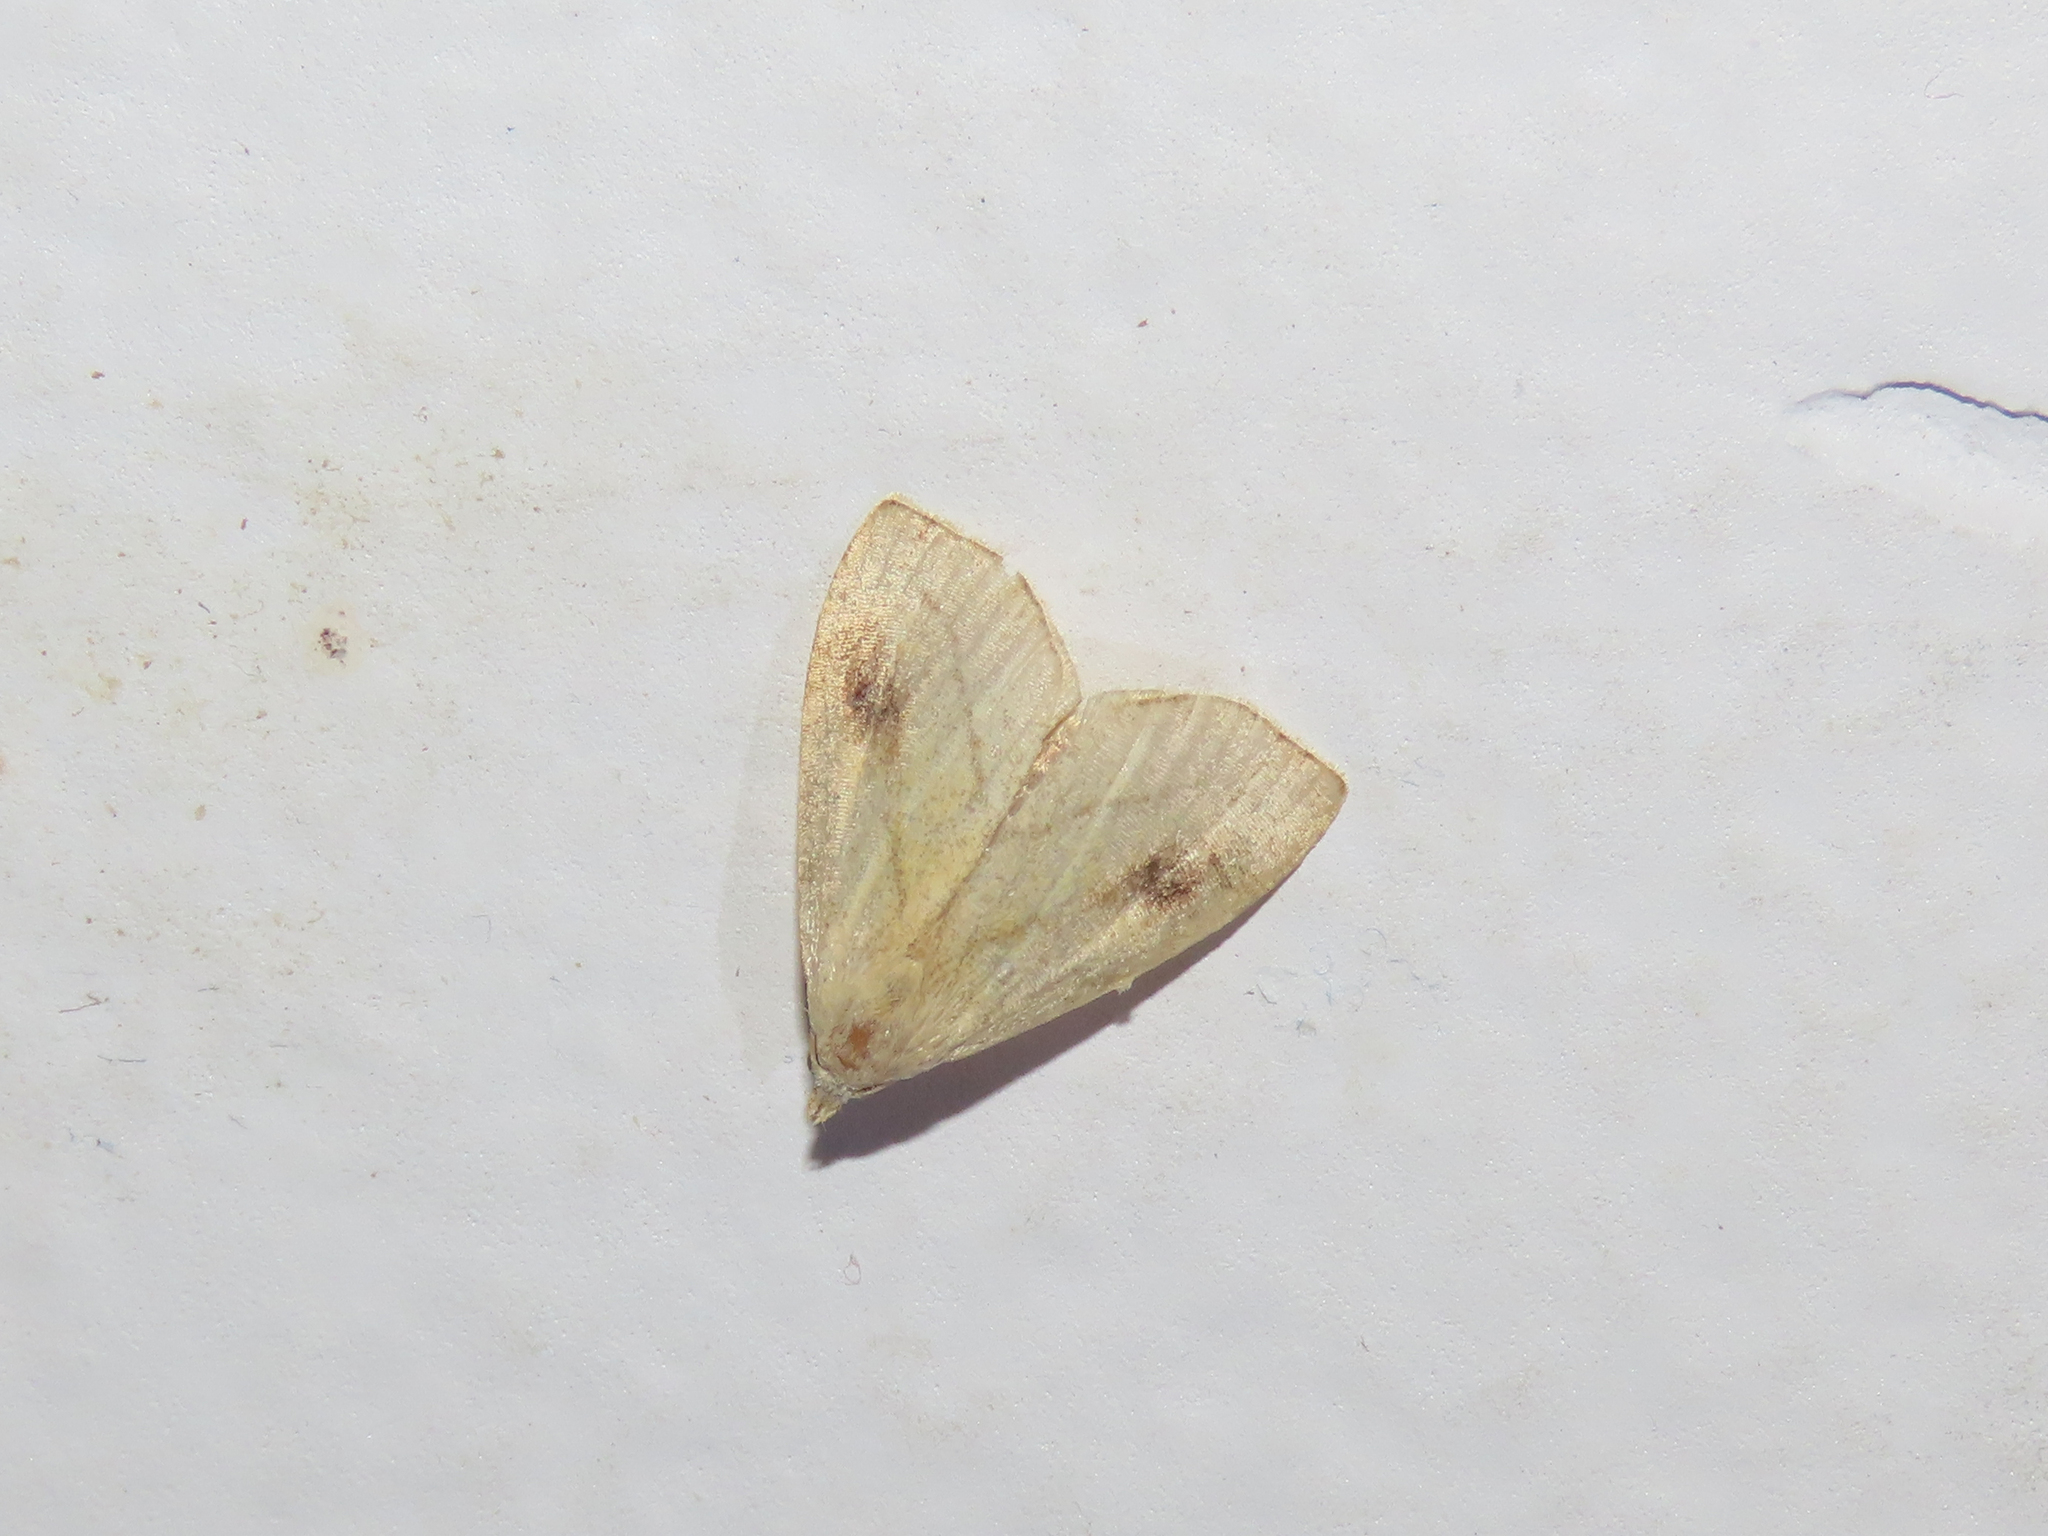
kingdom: Animalia
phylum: Arthropoda
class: Insecta
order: Lepidoptera
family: Erebidae
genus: Rivula
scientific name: Rivula propinqualis
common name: Spotted grass moth
